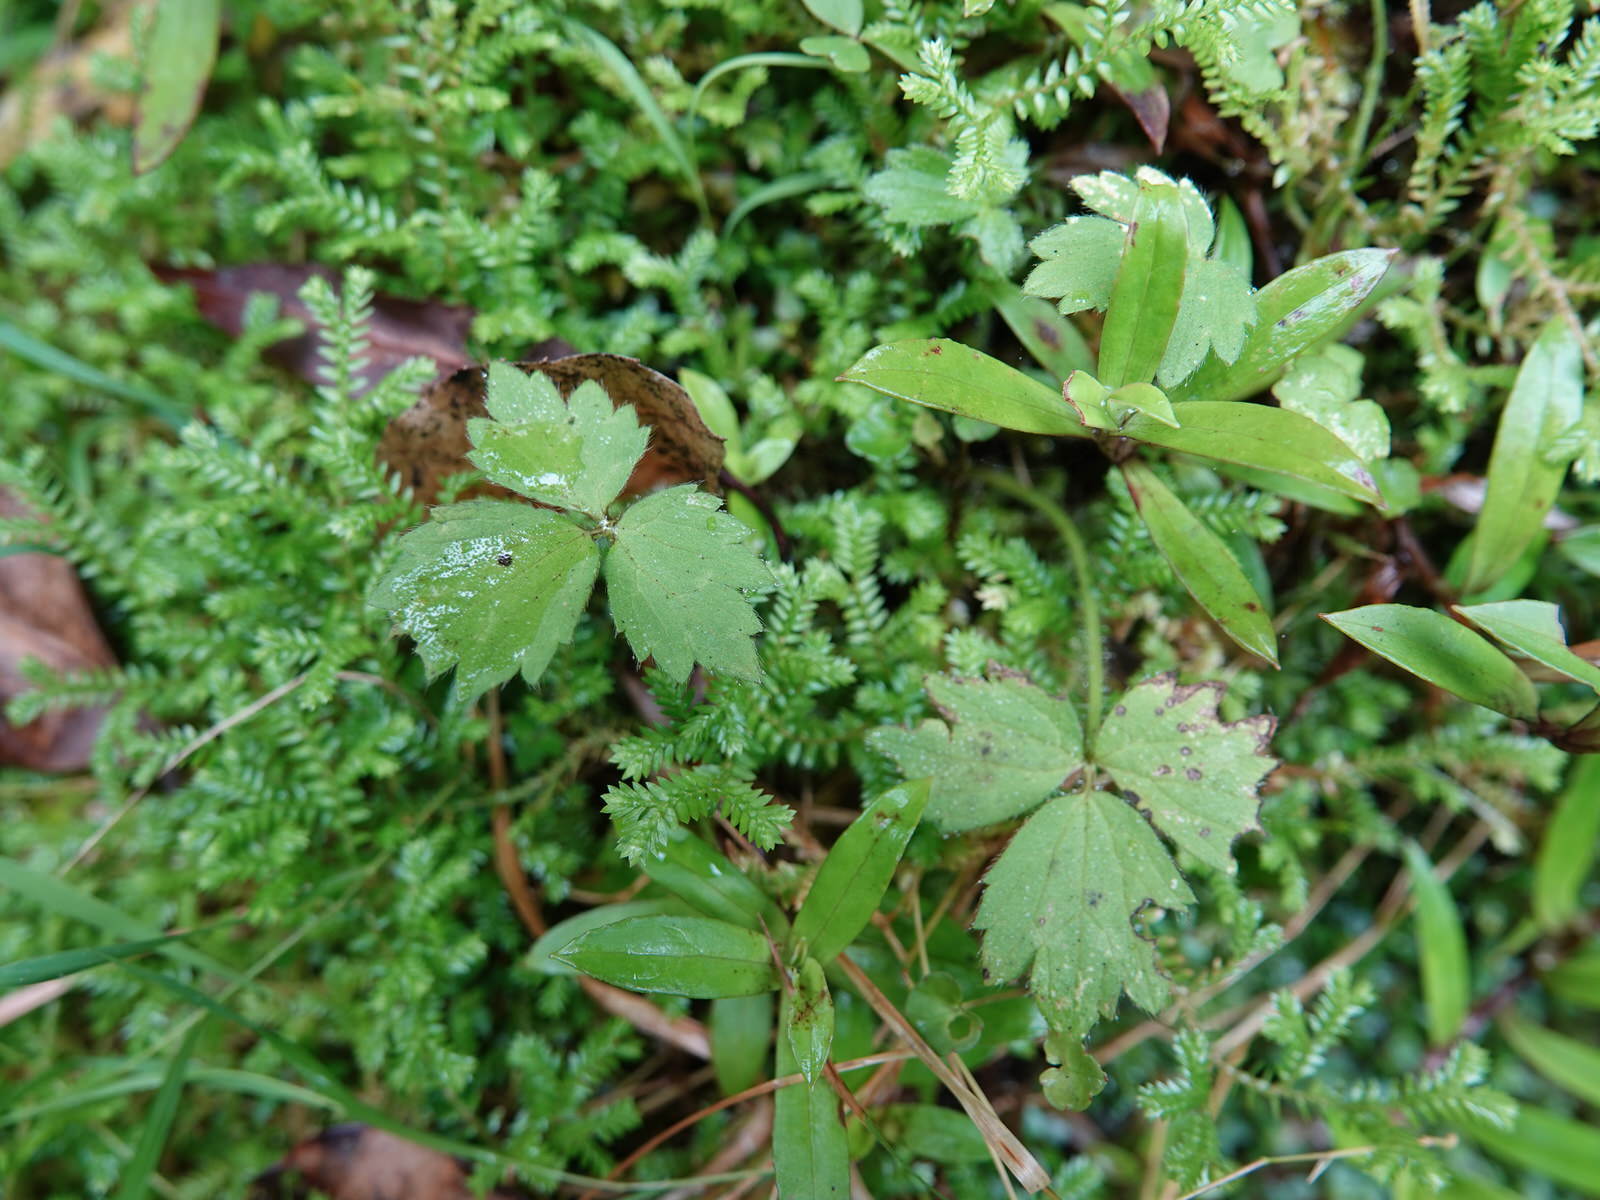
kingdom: Plantae
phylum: Tracheophyta
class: Magnoliopsida
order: Ranunculales
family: Ranunculaceae
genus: Ranunculus
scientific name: Ranunculus reflexus
